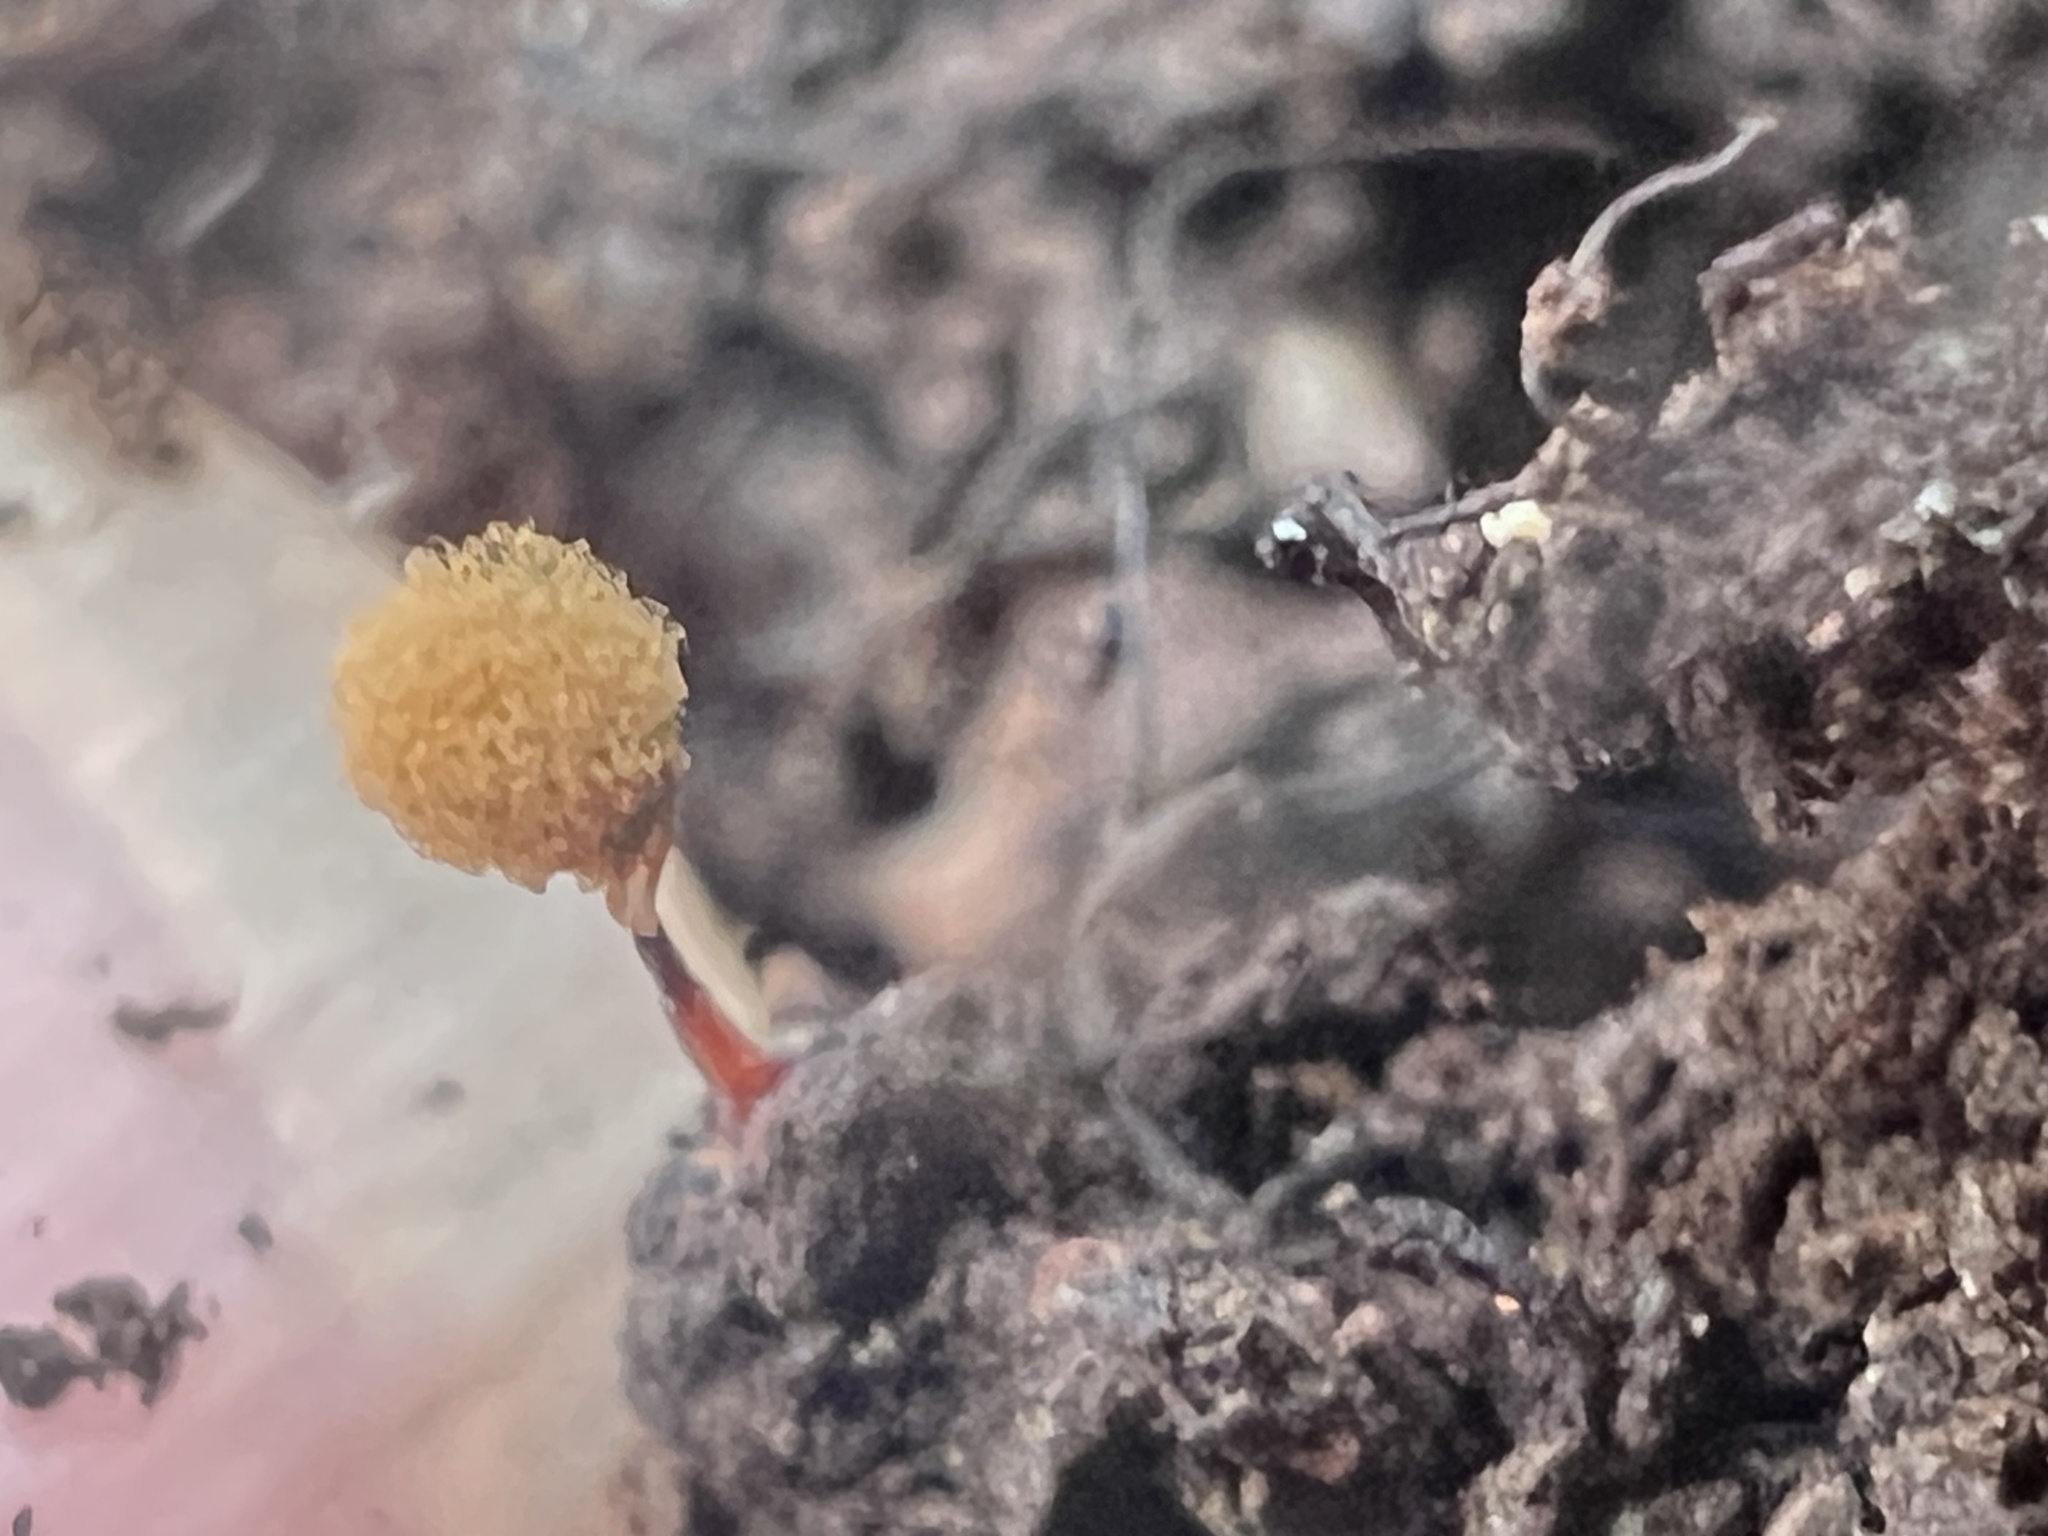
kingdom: Protozoa
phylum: Mycetozoa
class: Myxomycetes
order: Trichiales
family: Arcyriaceae
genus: Hemitrichia
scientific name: Hemitrichia calyculata
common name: Push pin slime mold
